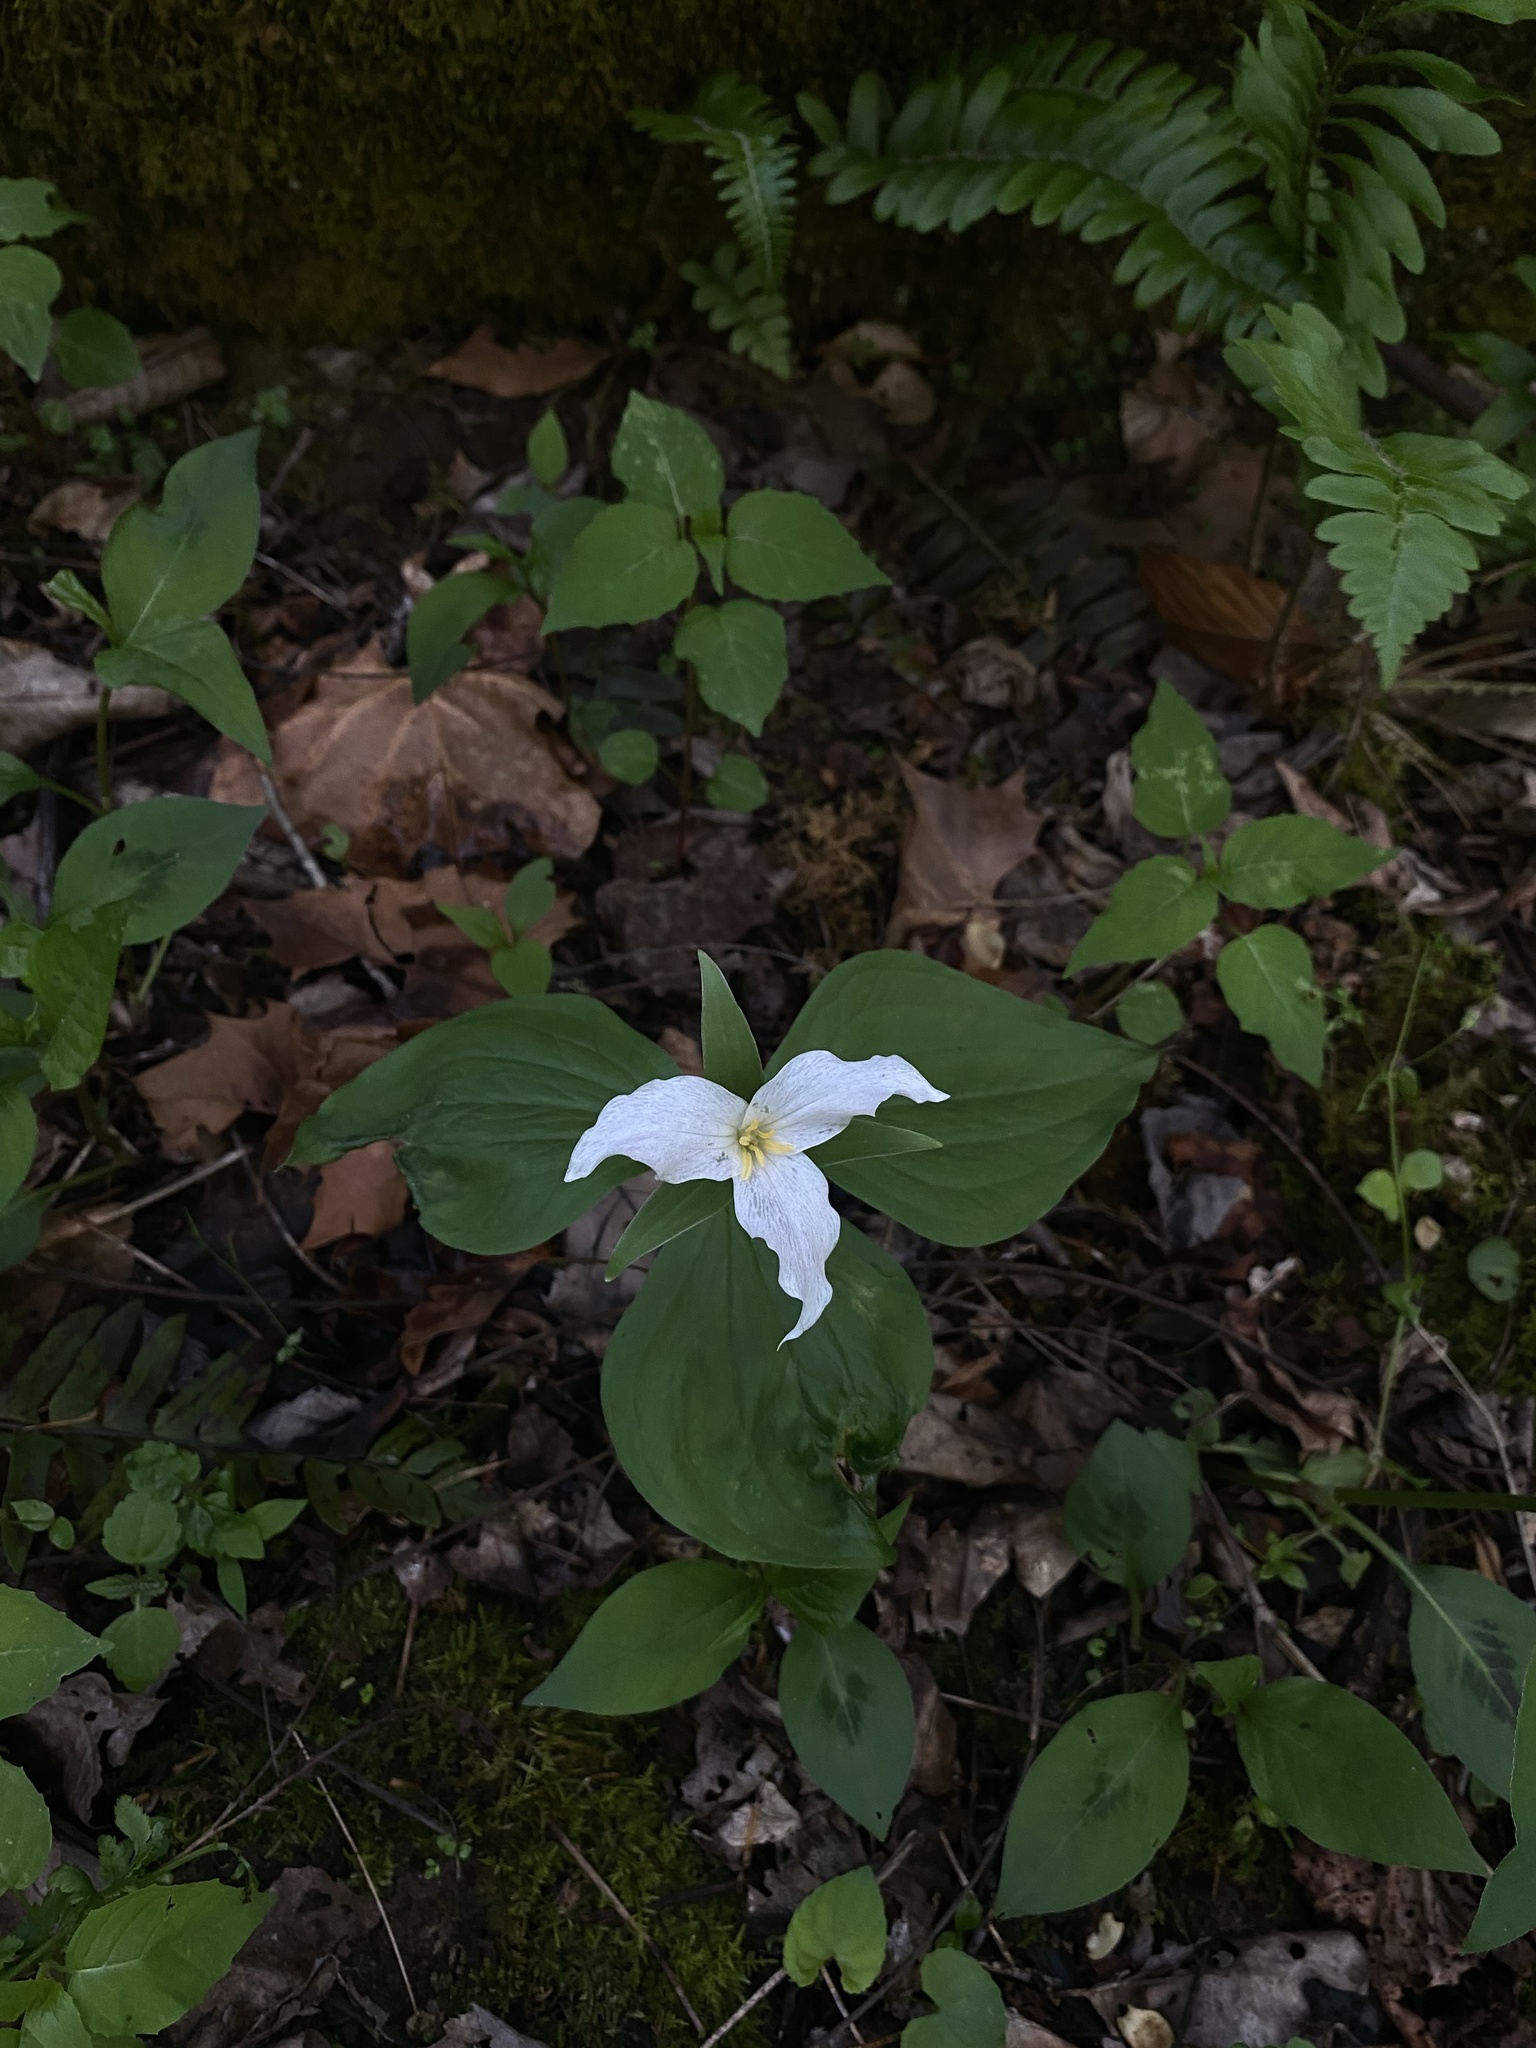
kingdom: Plantae
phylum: Tracheophyta
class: Liliopsida
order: Liliales
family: Melanthiaceae
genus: Trillium
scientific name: Trillium grandiflorum
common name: Great white trillium
